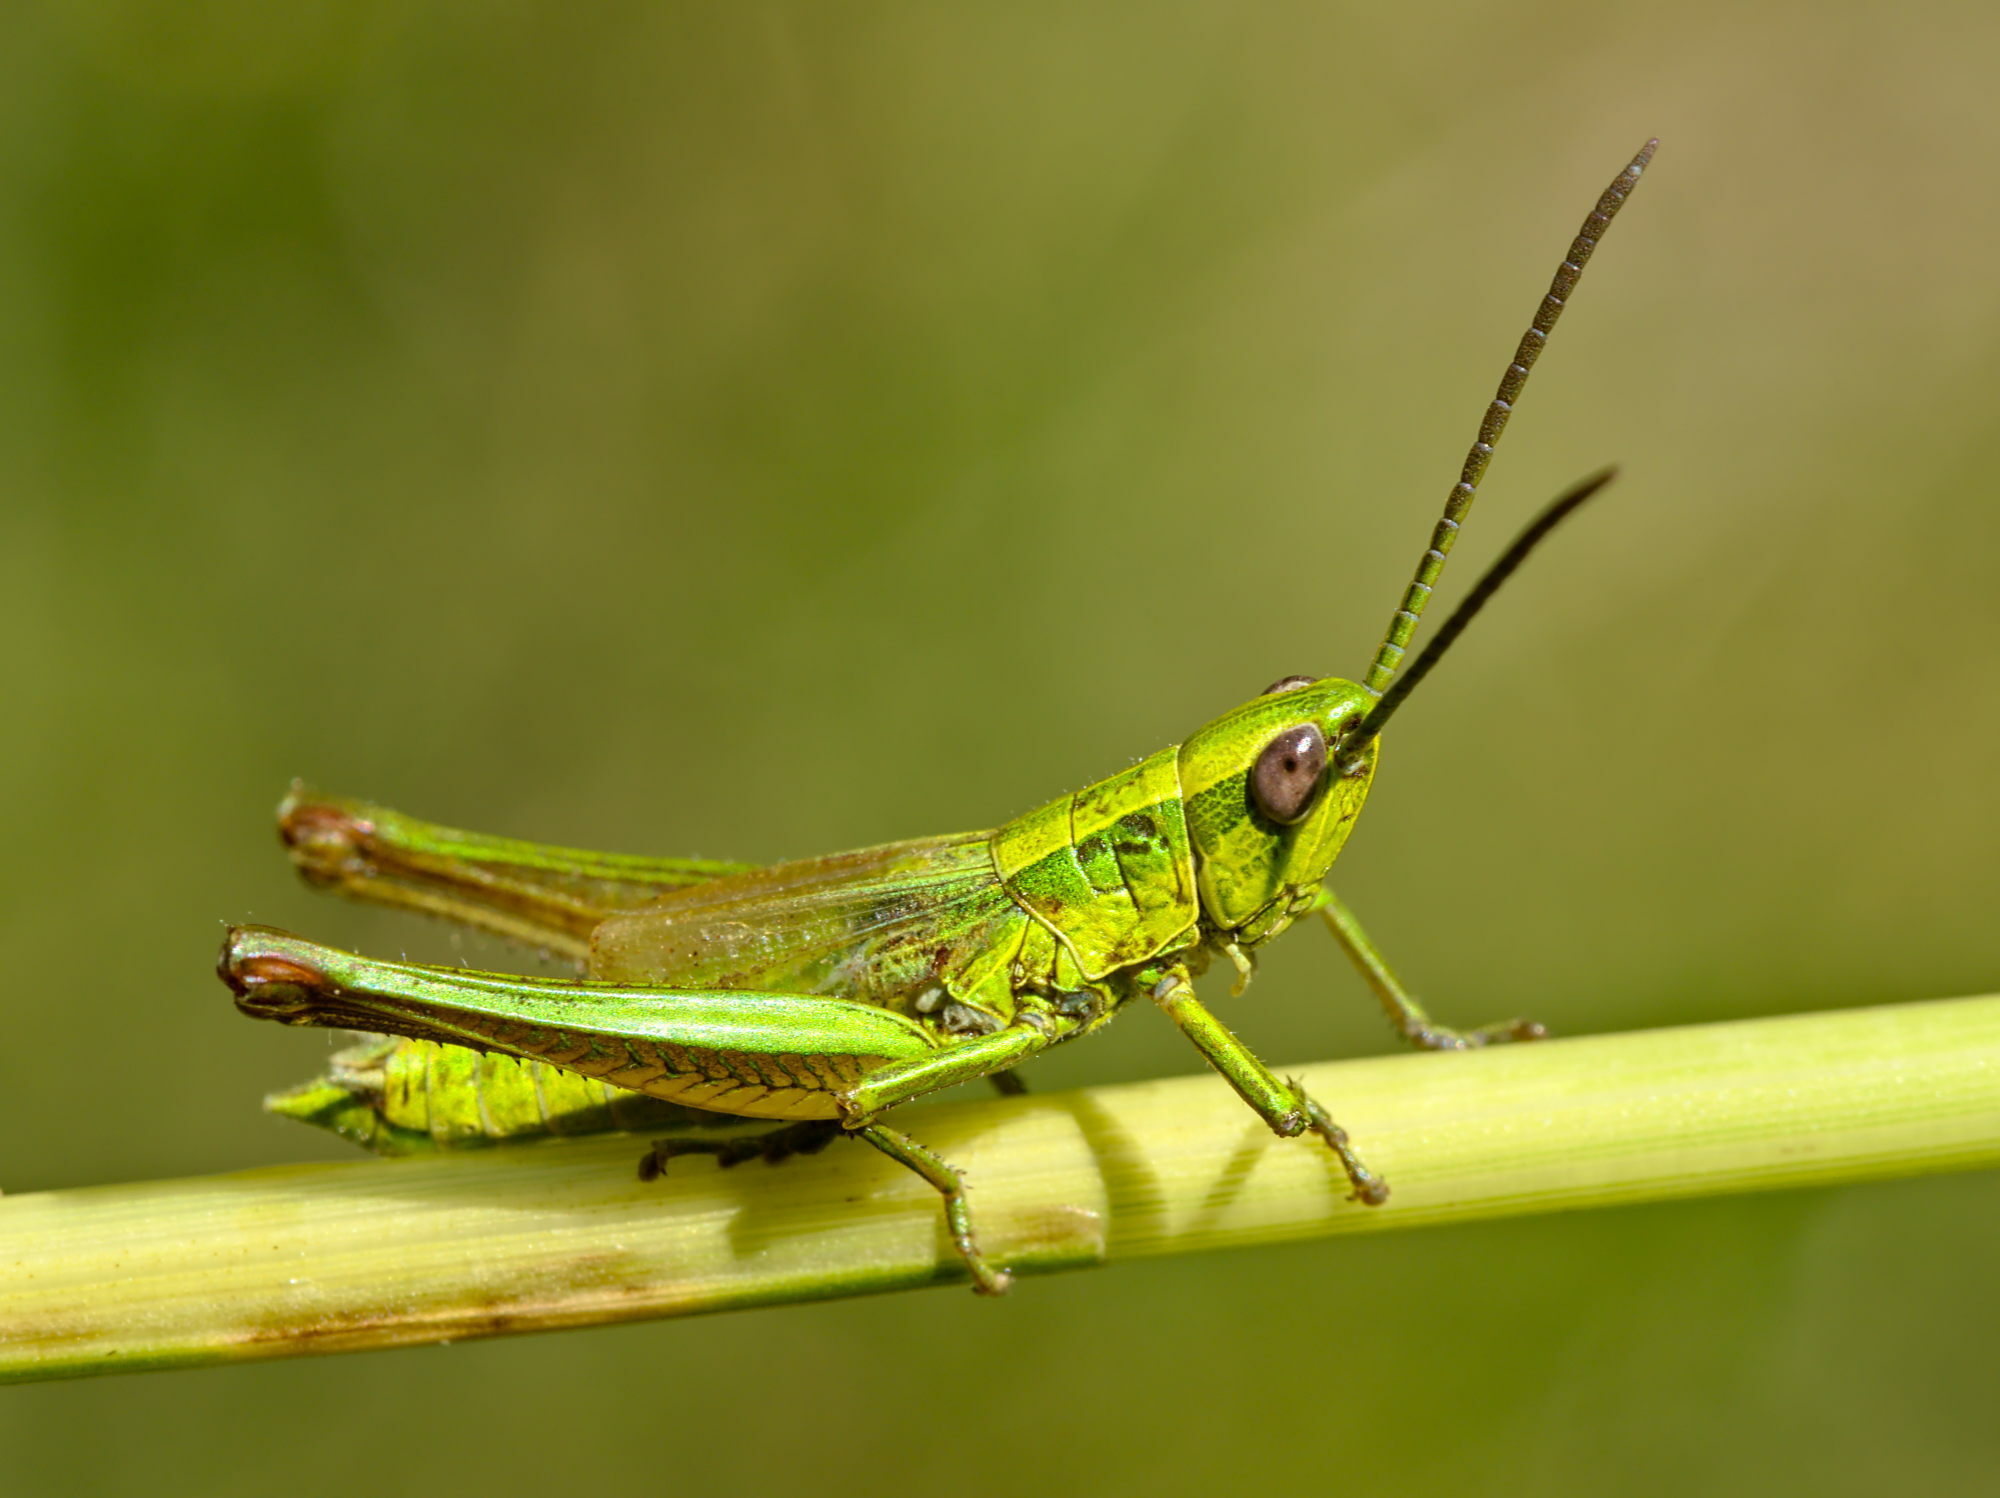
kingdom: Animalia
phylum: Arthropoda
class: Insecta
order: Orthoptera
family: Acrididae
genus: Euthystira
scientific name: Euthystira brachyptera
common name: Small gold grasshopper
